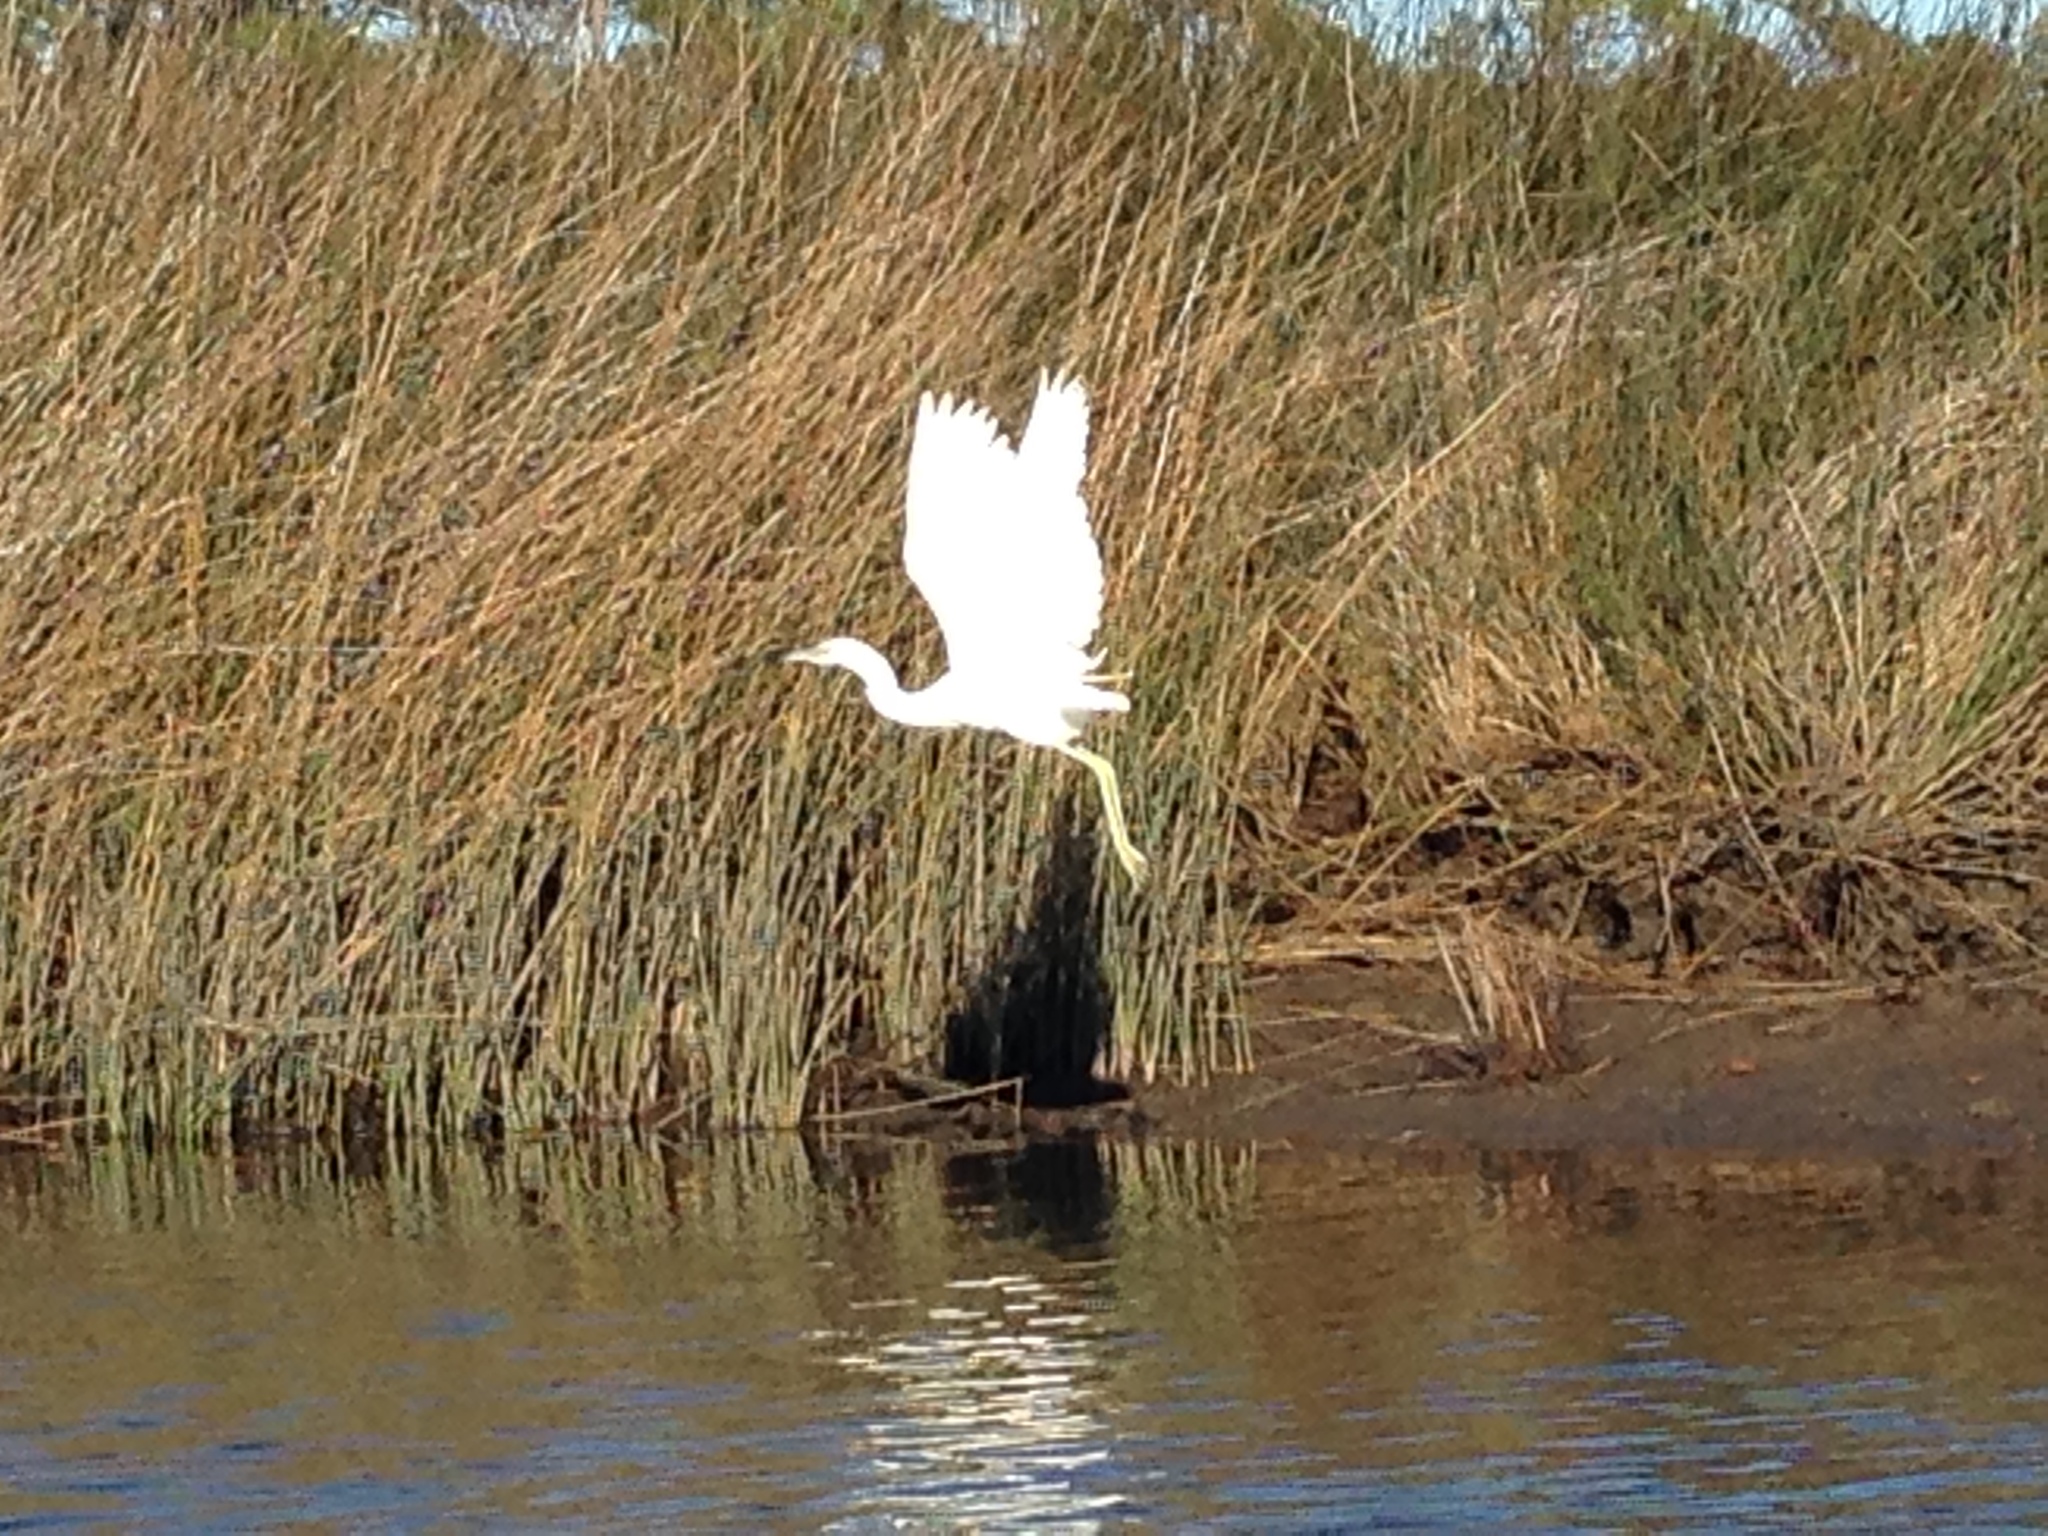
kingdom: Animalia
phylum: Chordata
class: Aves
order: Pelecaniformes
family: Ardeidae
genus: Egretta
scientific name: Egretta caerulea
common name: Little blue heron
